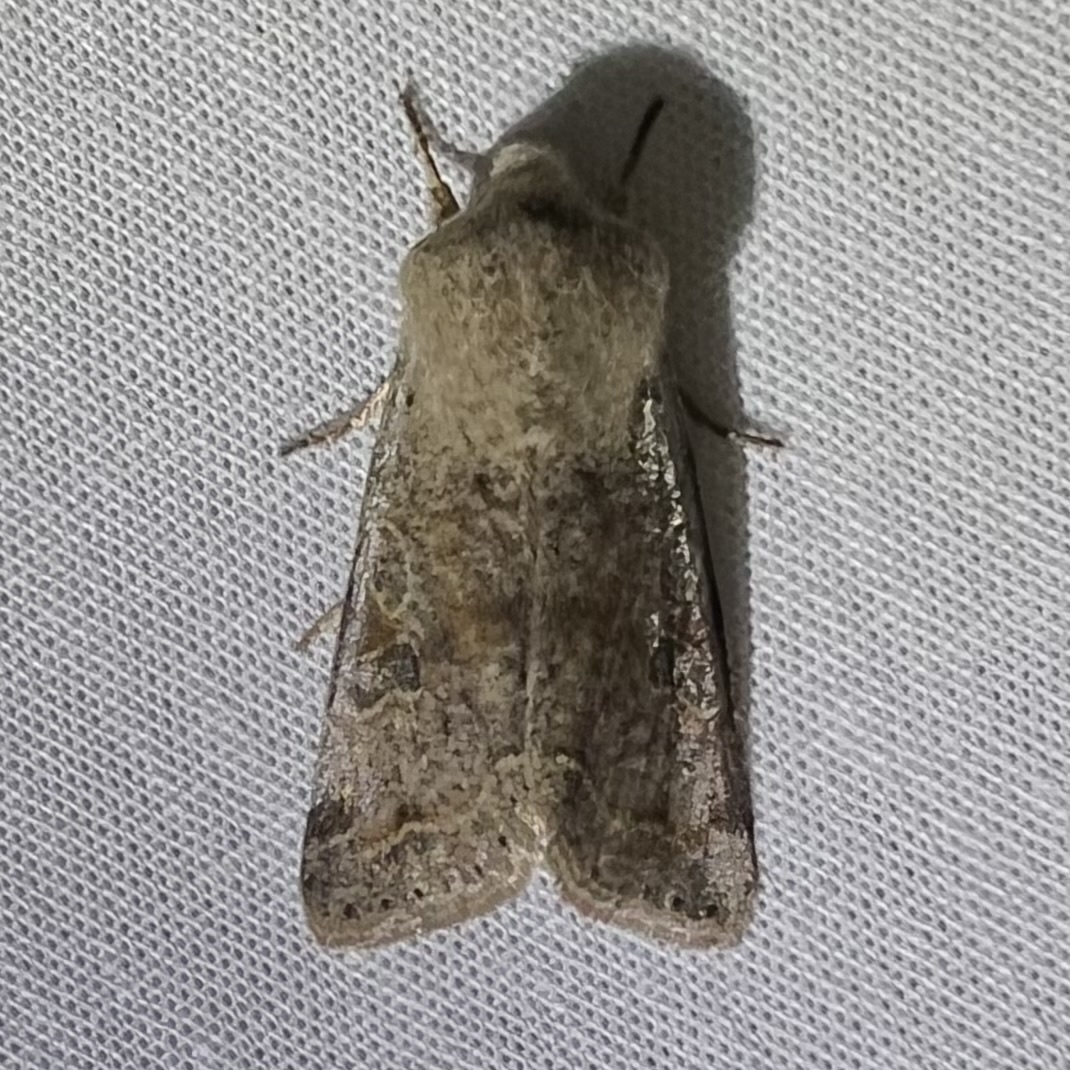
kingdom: Animalia
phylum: Arthropoda
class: Insecta
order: Lepidoptera
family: Noctuidae
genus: Orthosia
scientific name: Orthosia hibisci
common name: Green fruitworm
